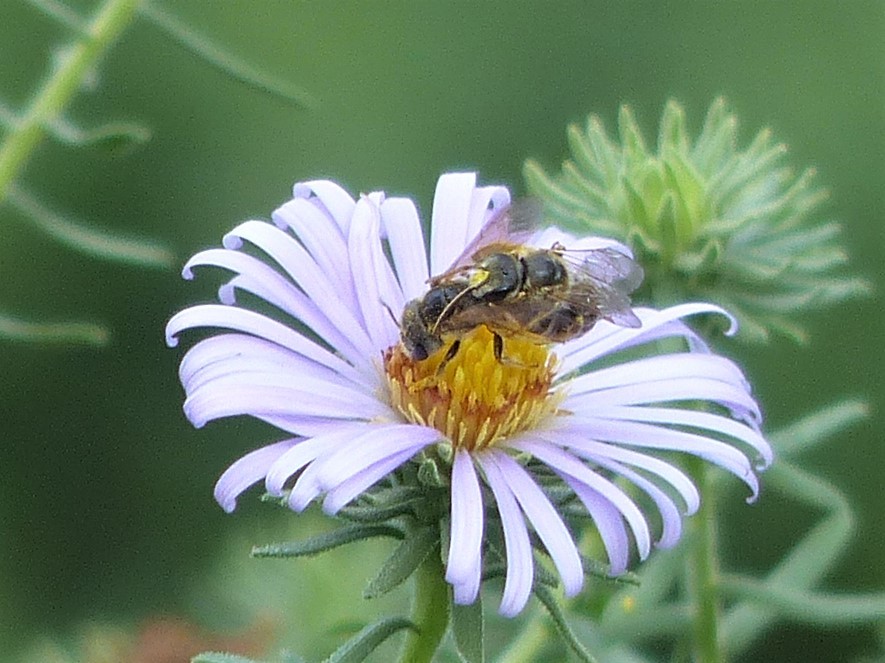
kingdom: Animalia
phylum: Arthropoda
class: Insecta
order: Hymenoptera
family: Halictidae
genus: Halictus
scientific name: Halictus ligatus
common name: Ligated furrow bee
